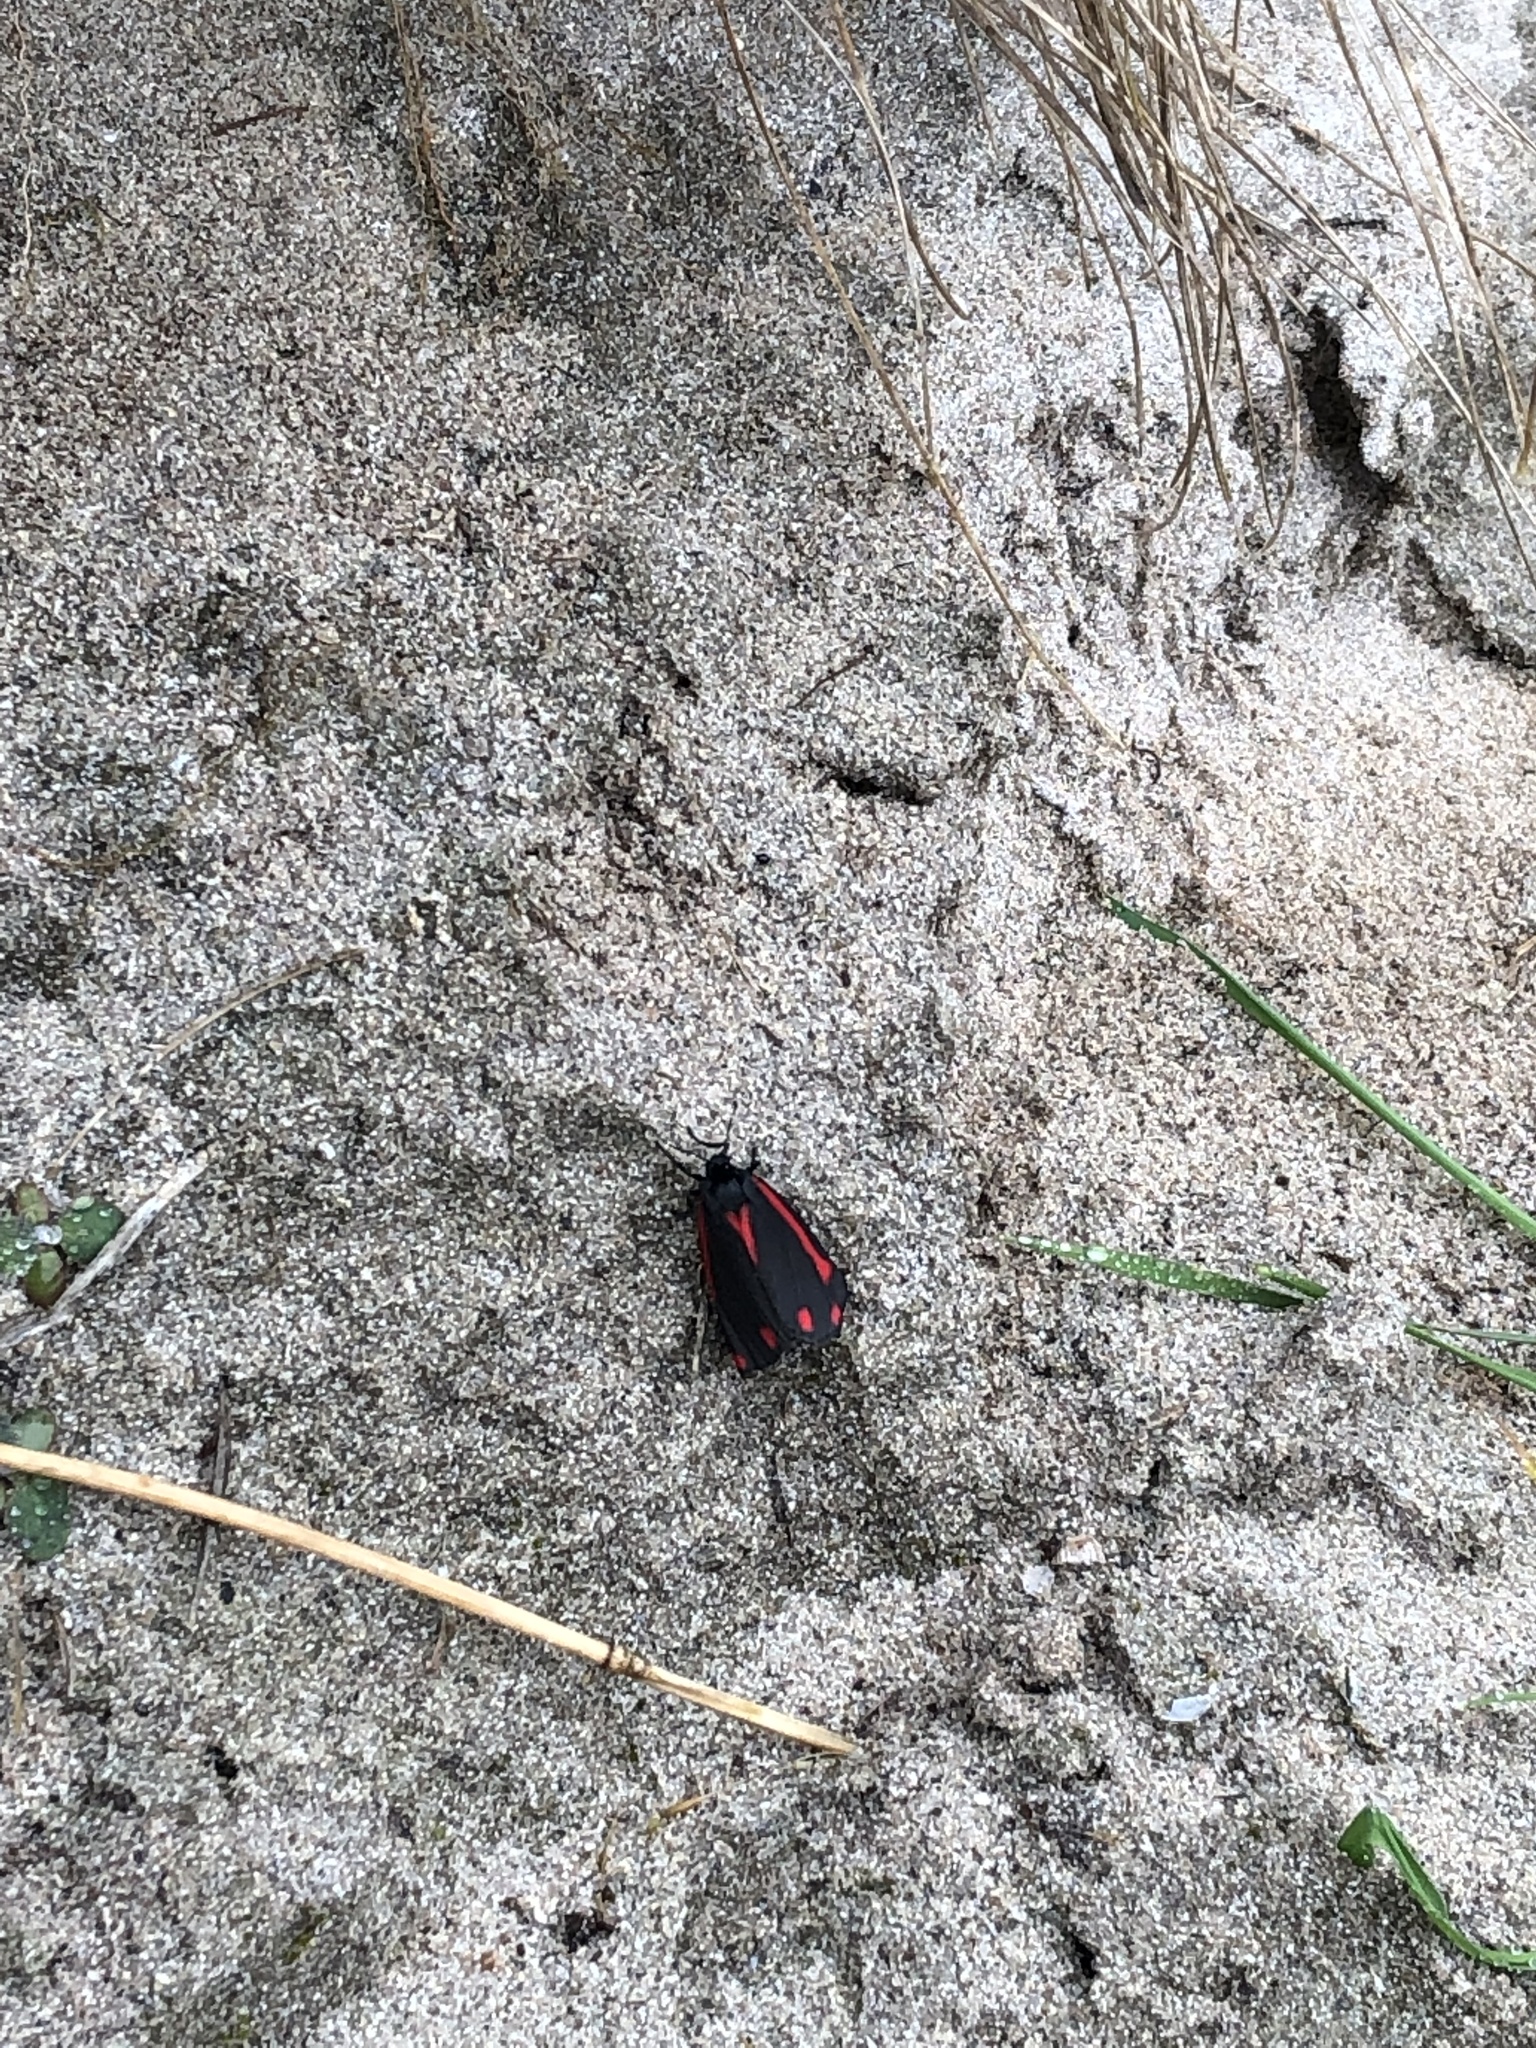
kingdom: Animalia
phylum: Arthropoda
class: Insecta
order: Lepidoptera
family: Erebidae
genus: Tyria
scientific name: Tyria jacobaeae
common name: Cinnabar
